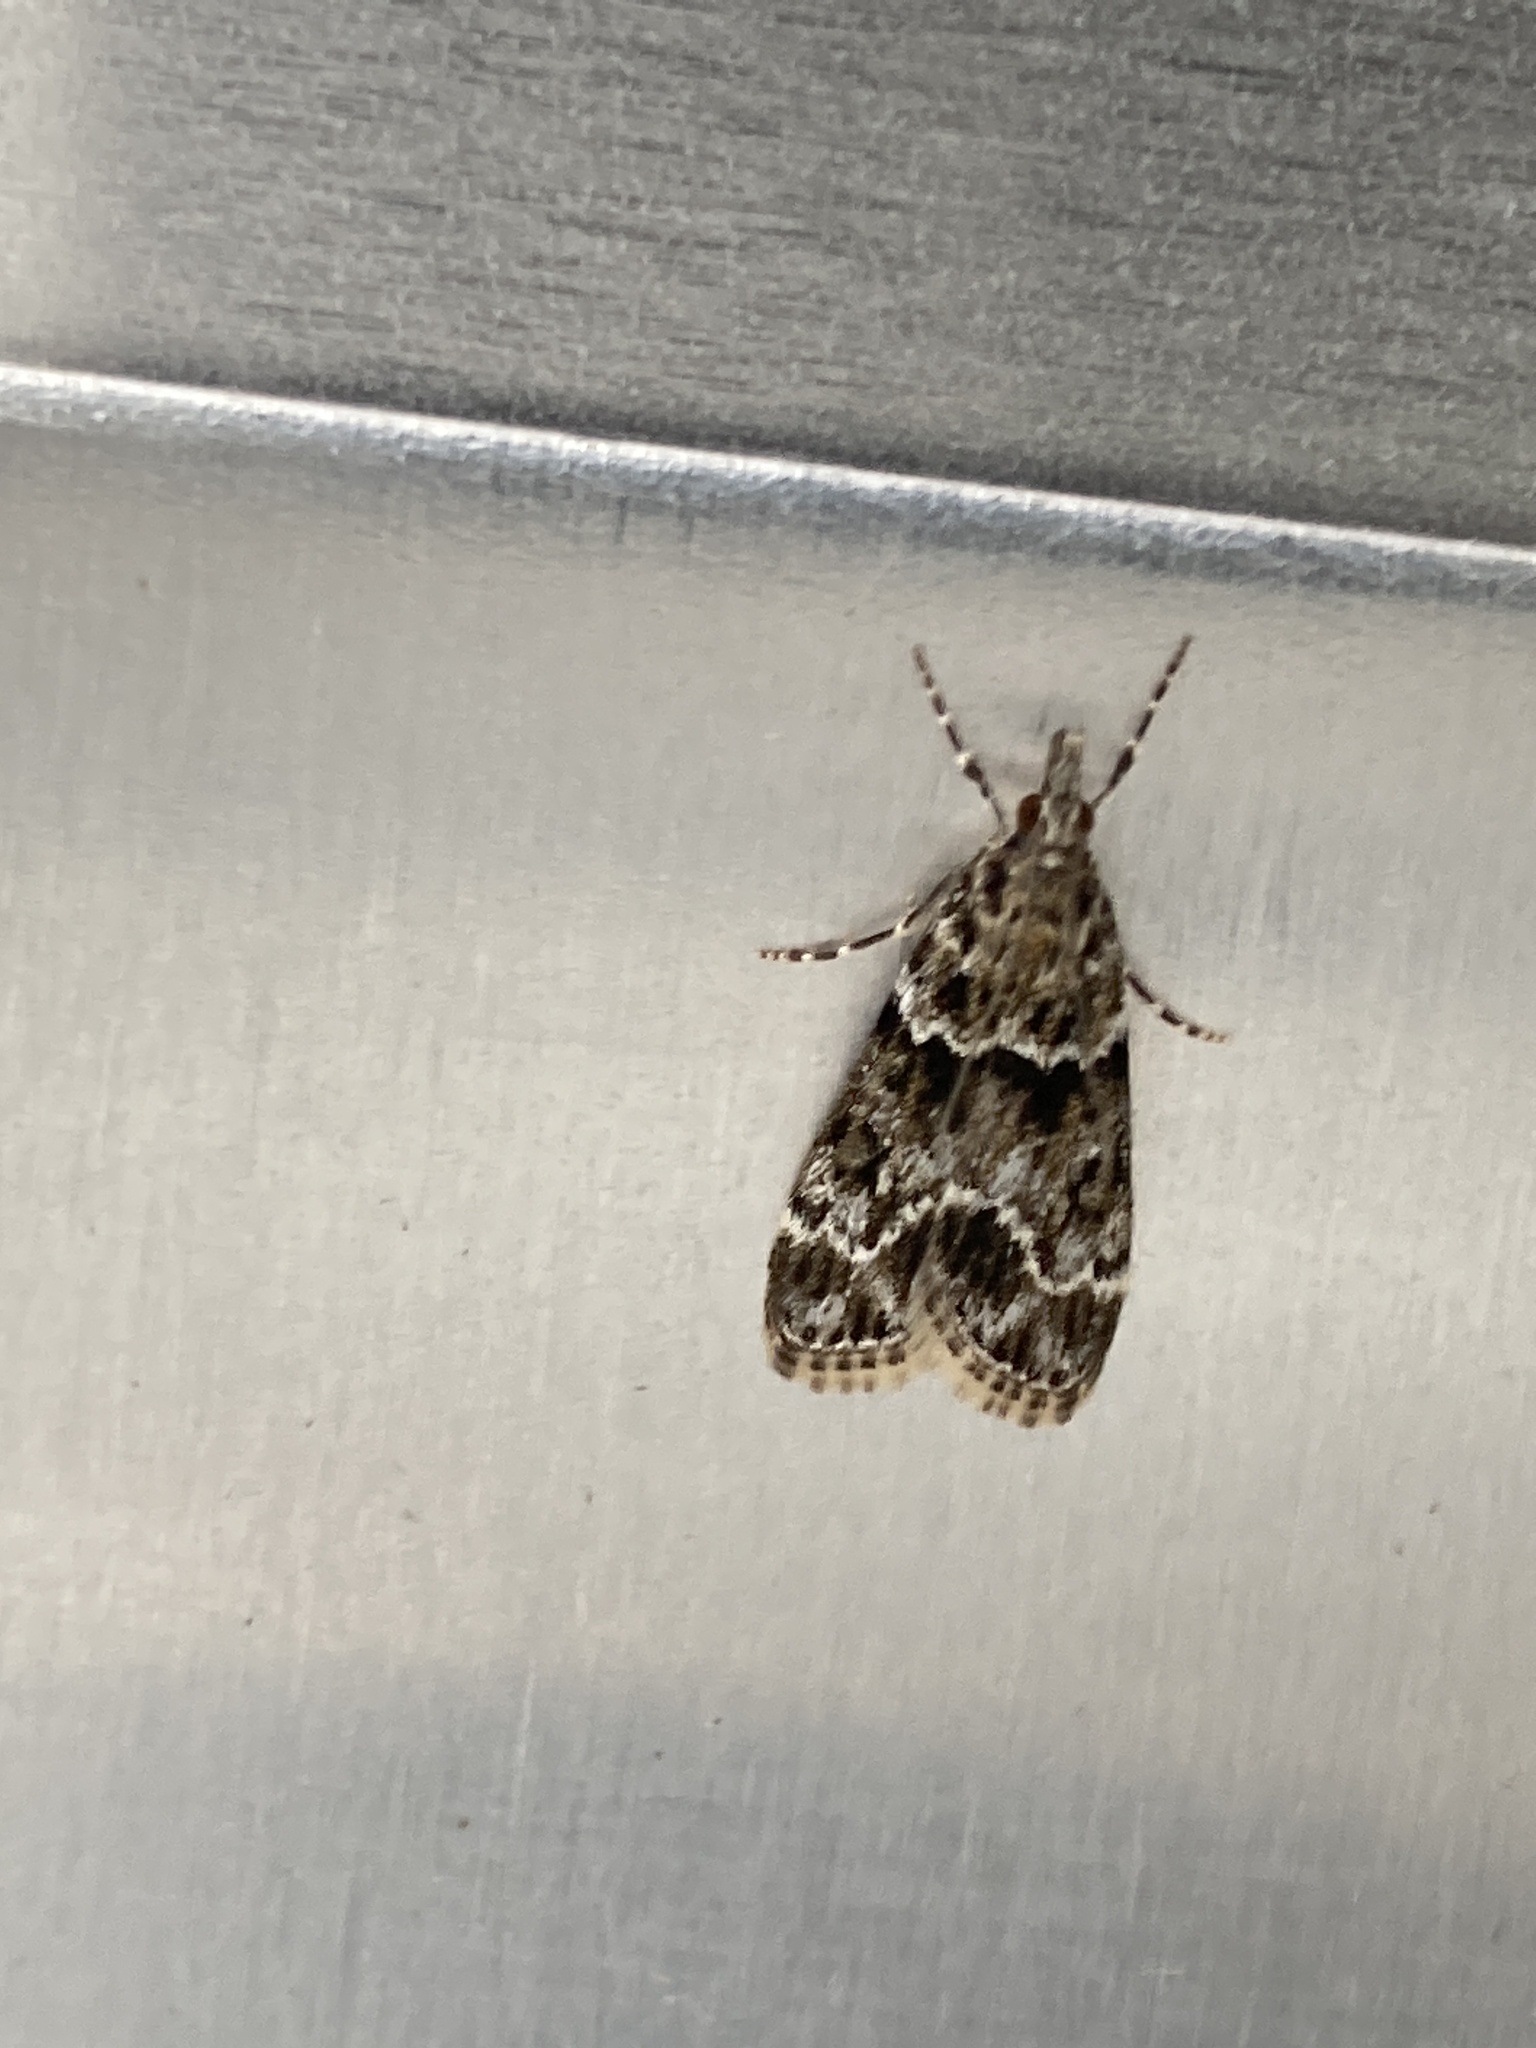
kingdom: Animalia
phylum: Arthropoda
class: Insecta
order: Lepidoptera
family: Crambidae
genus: Eudonia
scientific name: Eudonia mercurella
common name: Small grey
